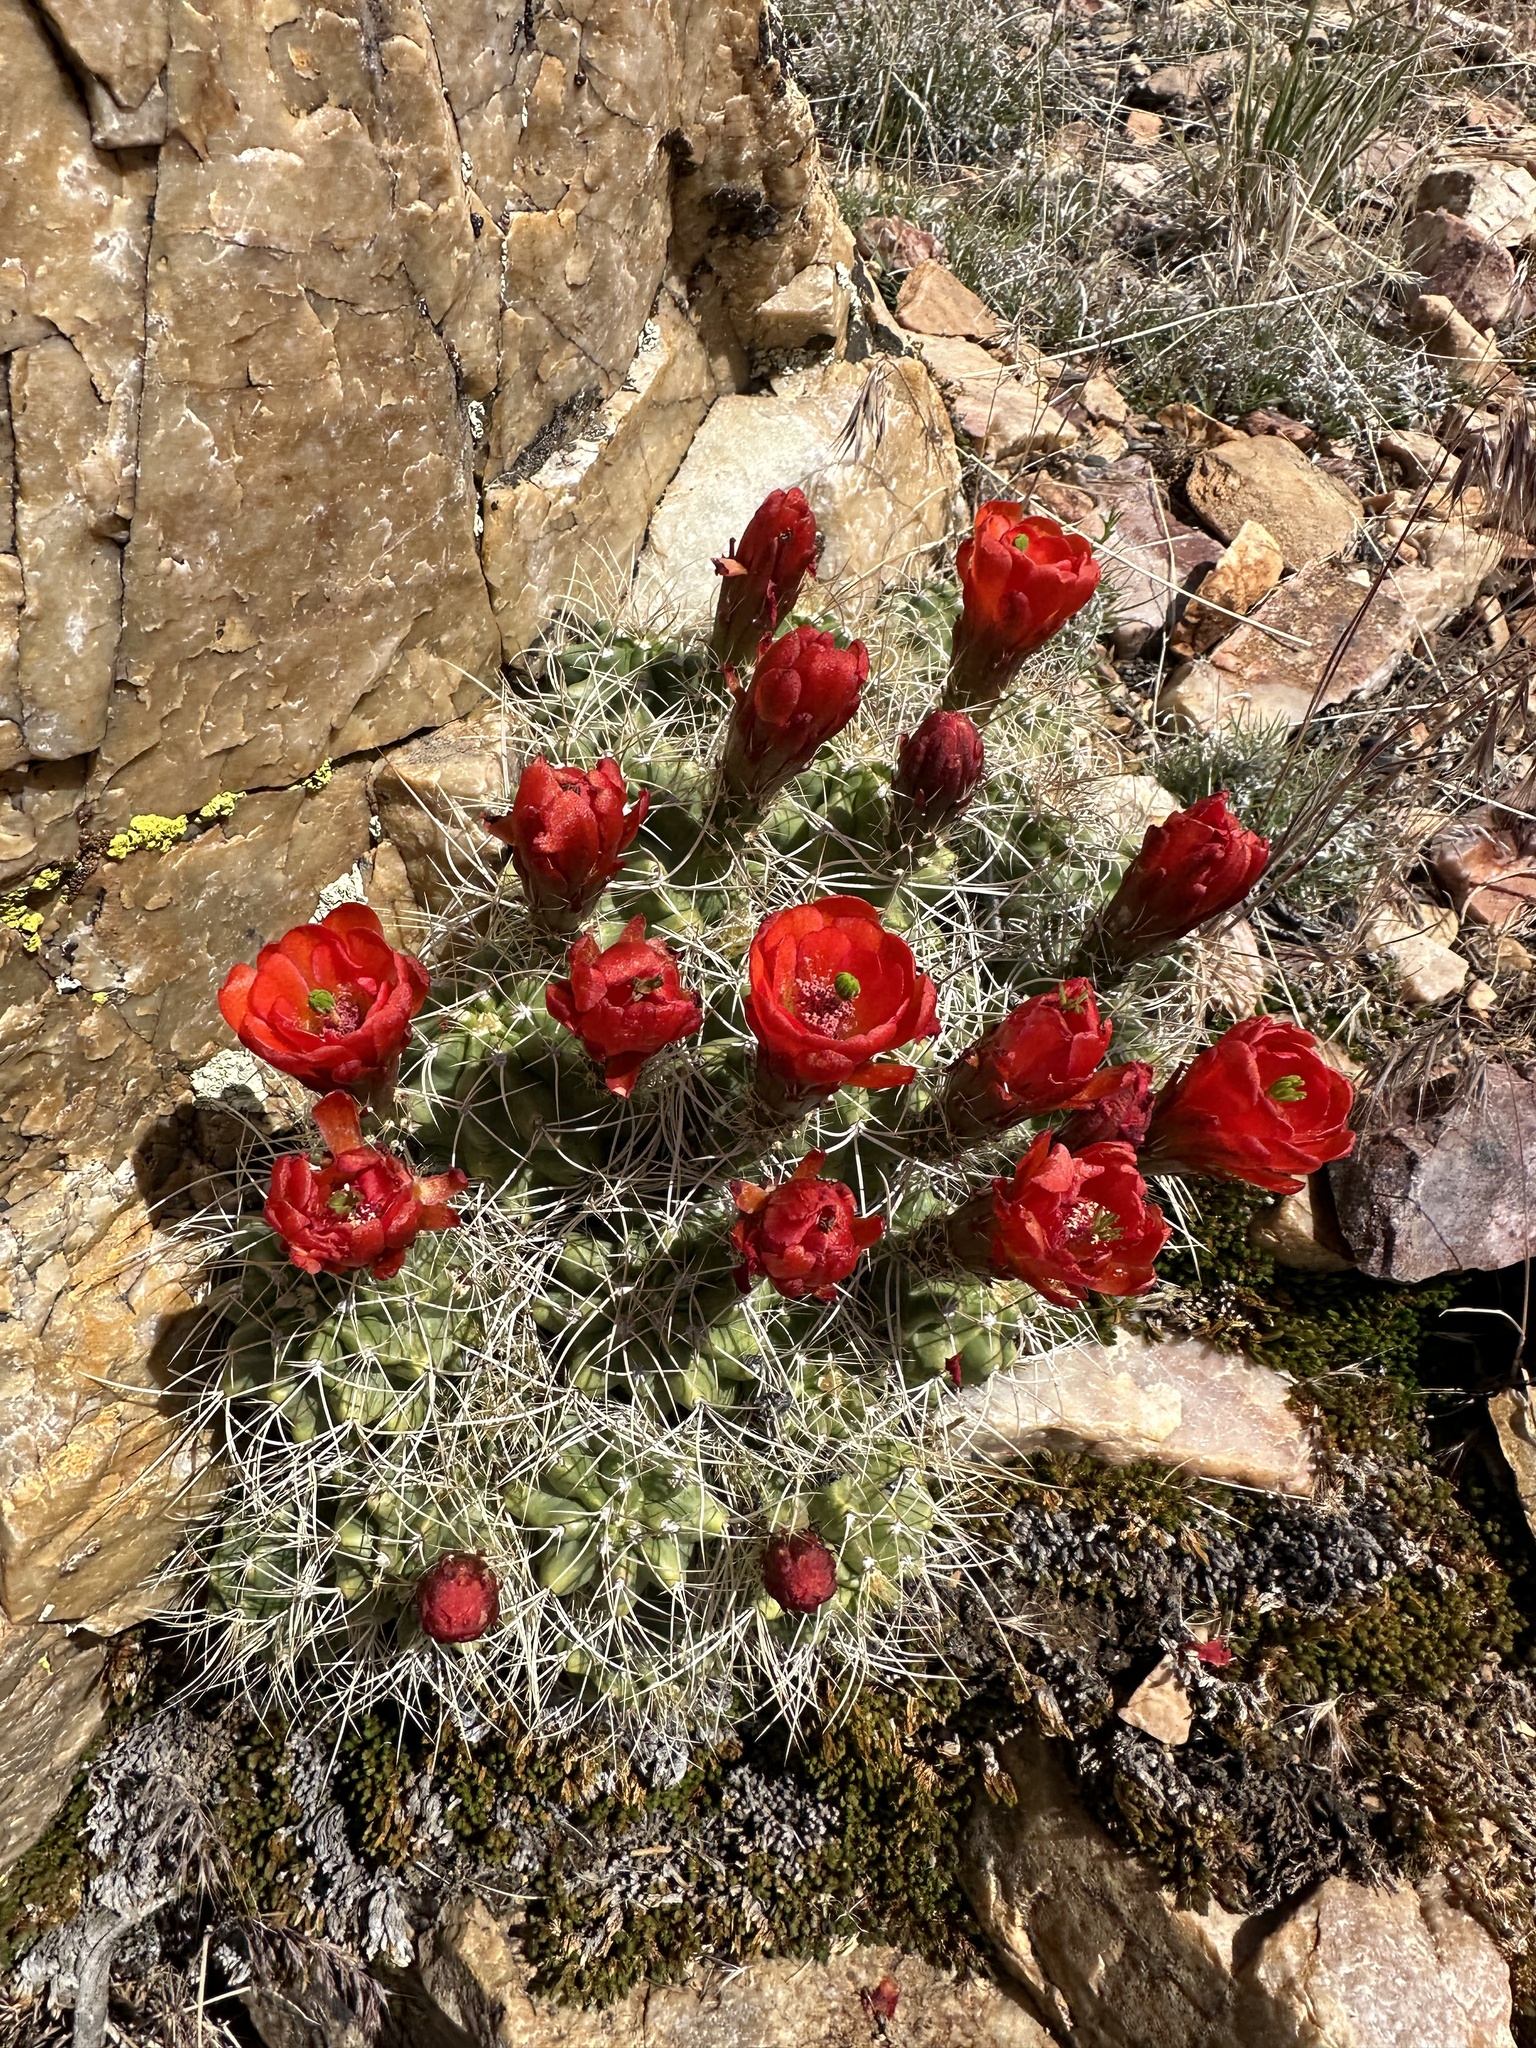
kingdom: Plantae
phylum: Tracheophyta
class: Magnoliopsida
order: Caryophyllales
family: Cactaceae
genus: Echinocereus
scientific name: Echinocereus triglochidiatus
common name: Claretcup hedgehog
